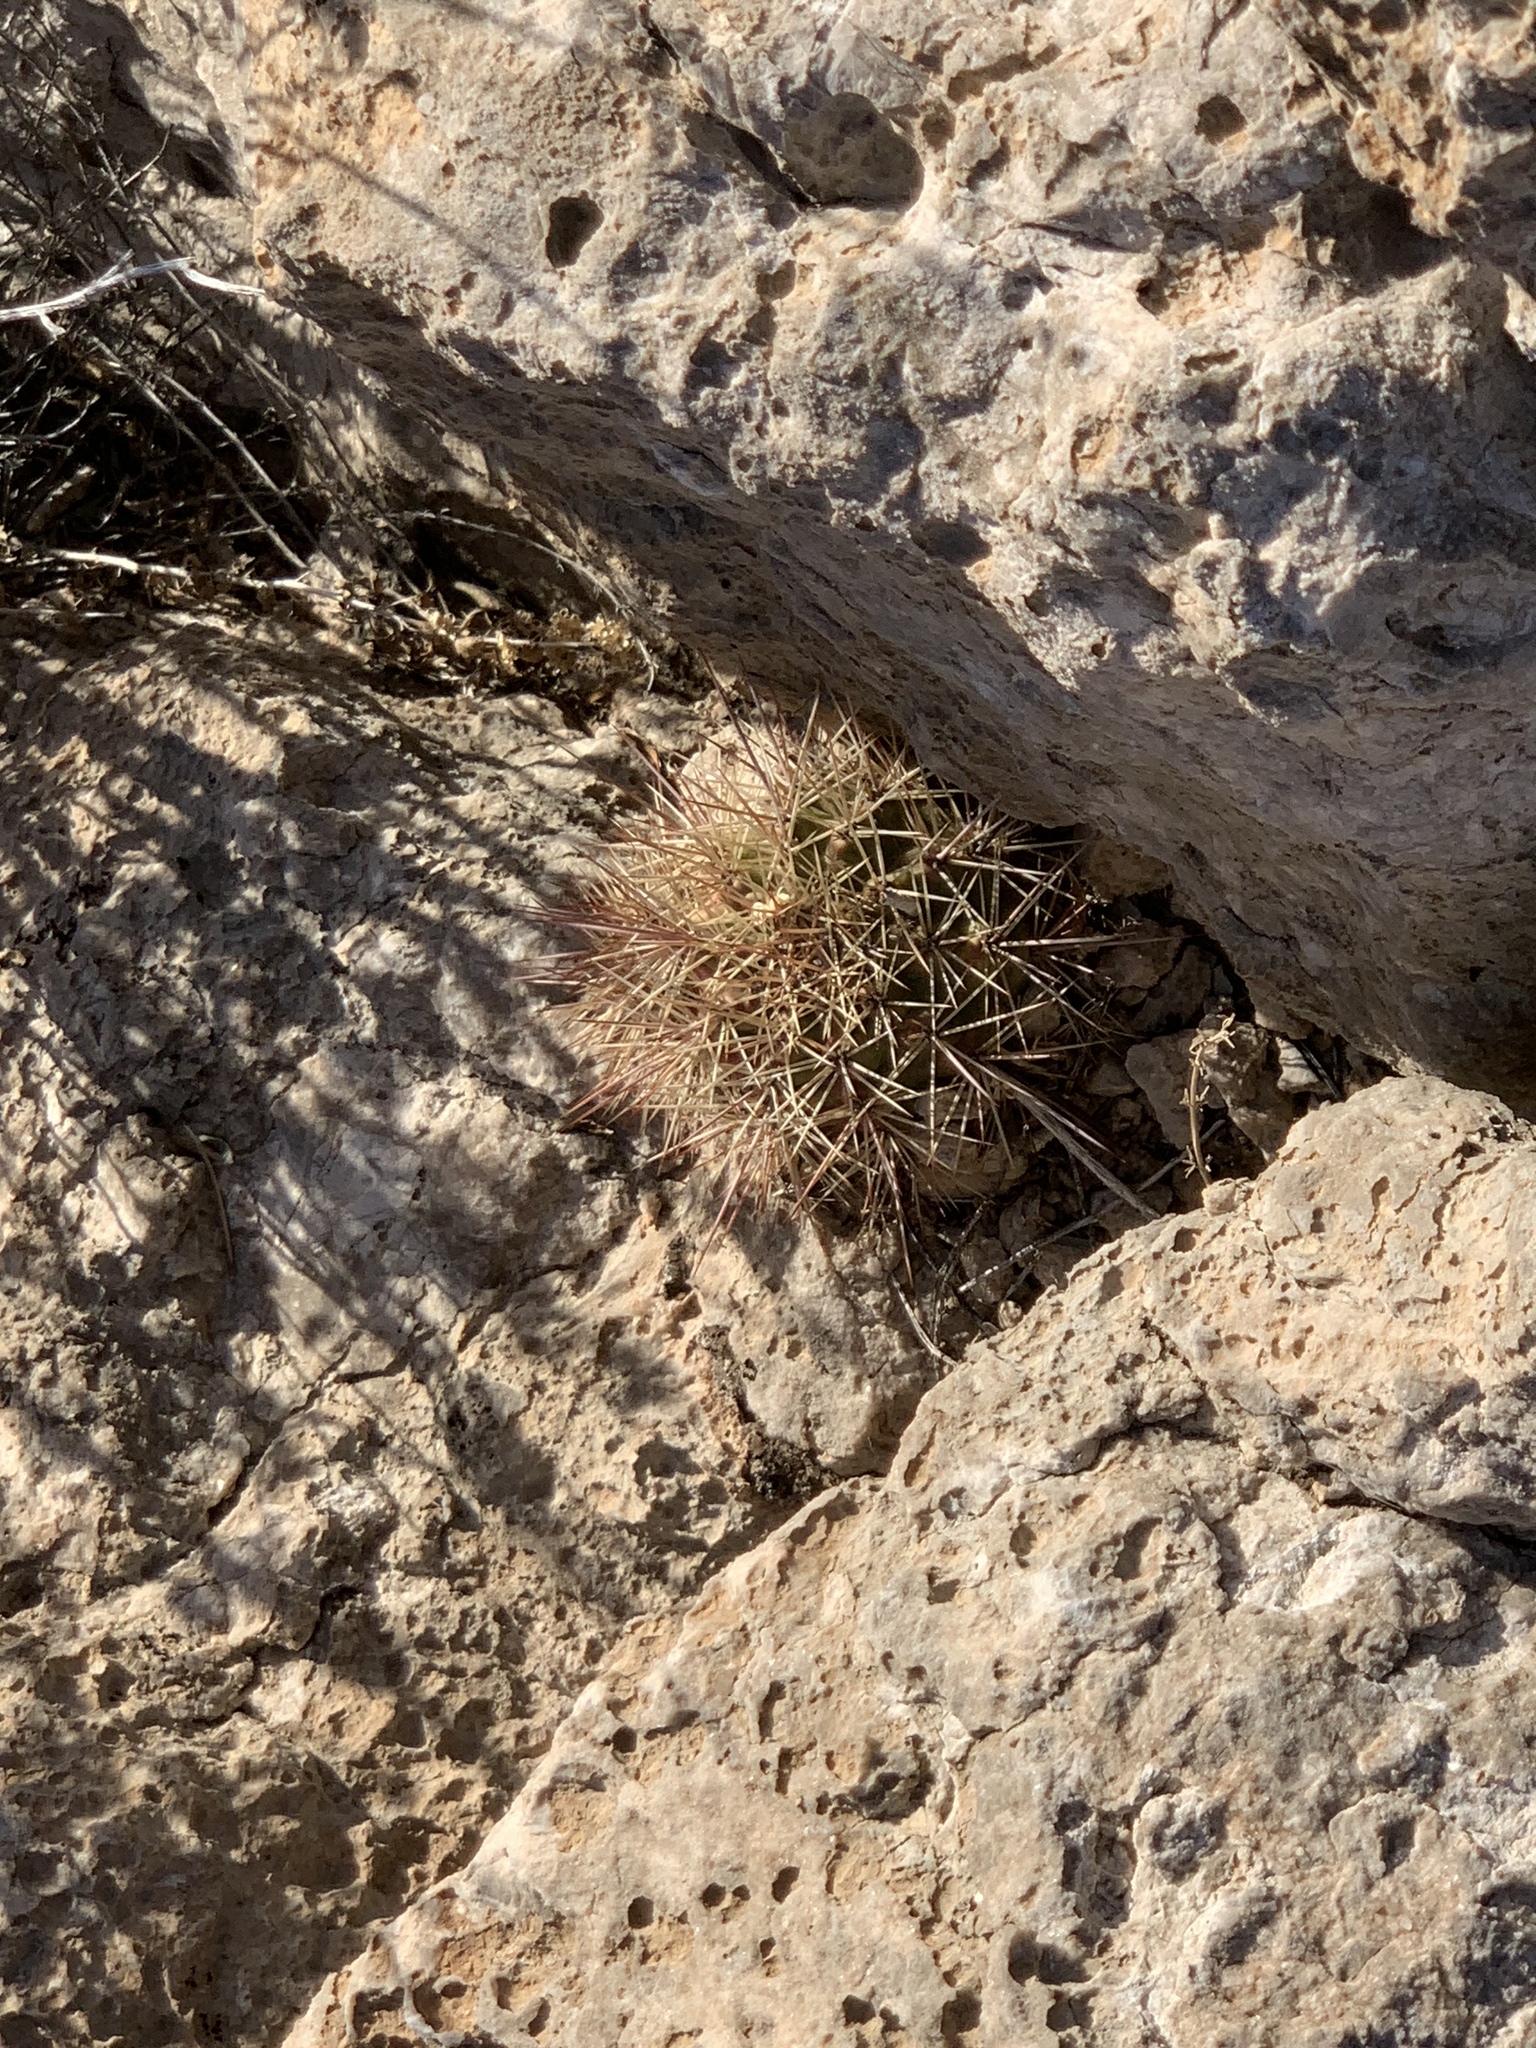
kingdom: Plantae
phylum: Tracheophyta
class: Magnoliopsida
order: Caryophyllales
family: Cactaceae
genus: Echinocereus
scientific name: Echinocereus coccineus
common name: Scarlet hedgehog cactus
